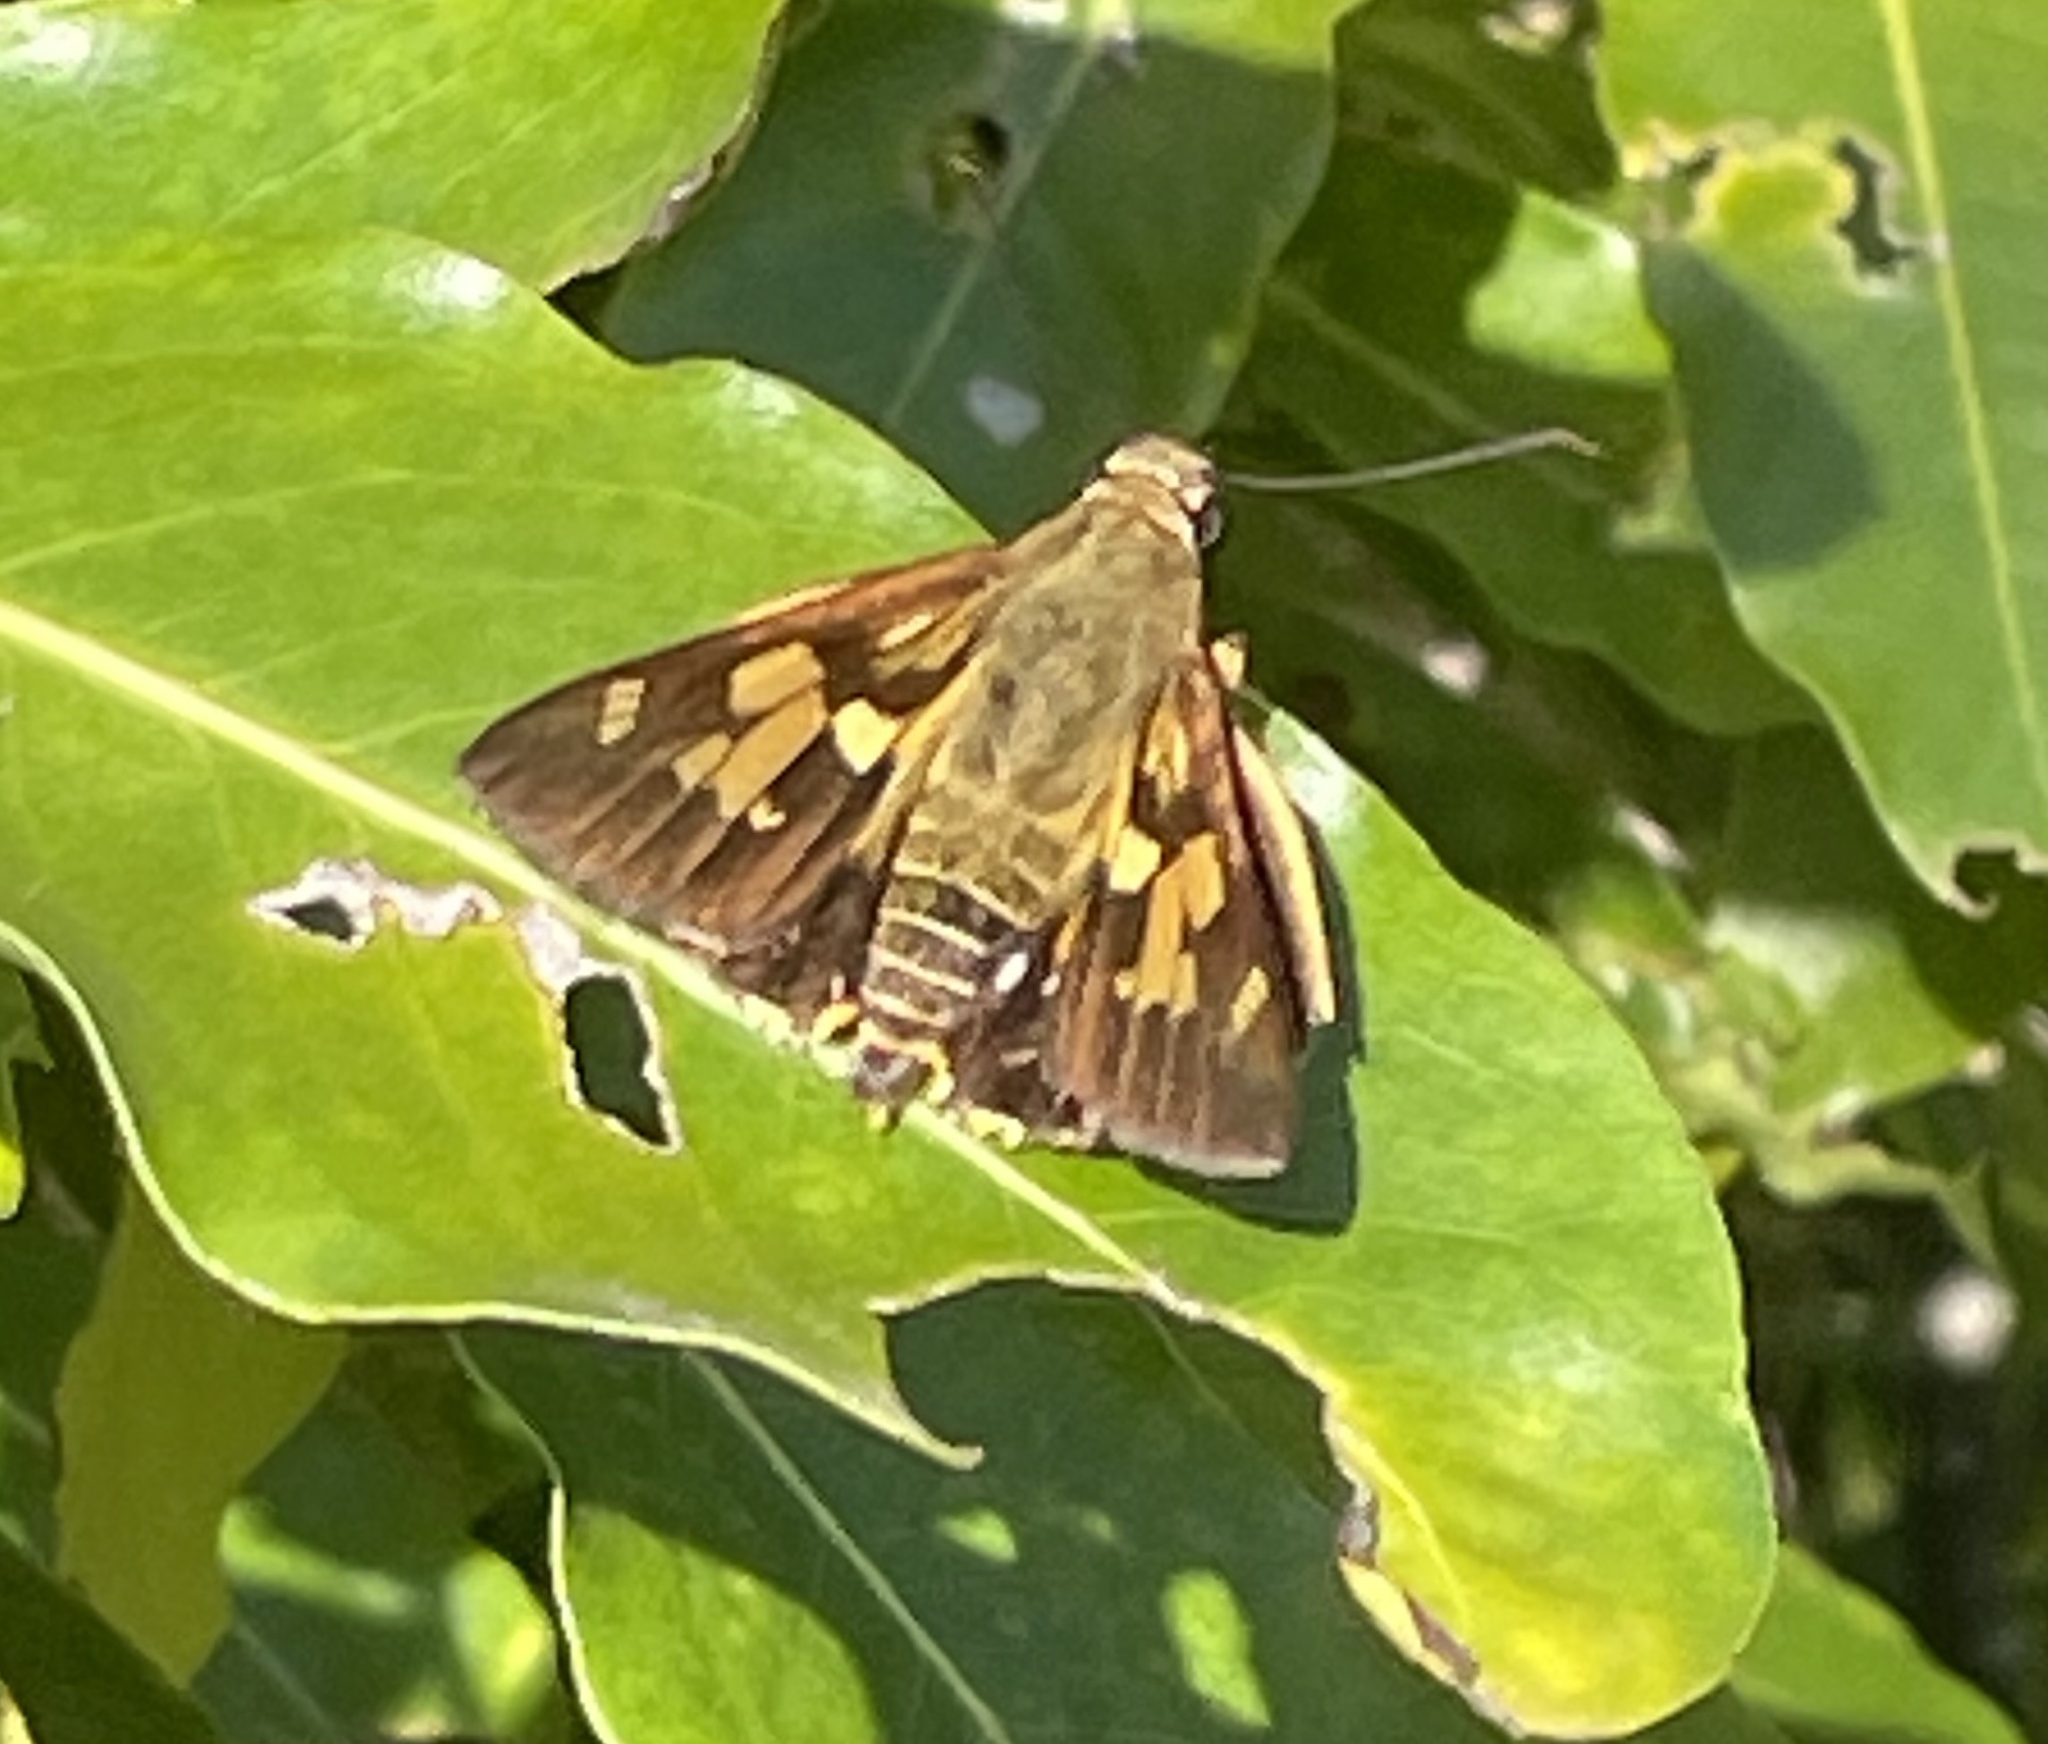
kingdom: Animalia
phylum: Arthropoda
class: Insecta
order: Lepidoptera
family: Hesperiidae
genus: Trapezites
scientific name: Trapezites symmomus
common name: Splendid ochre
